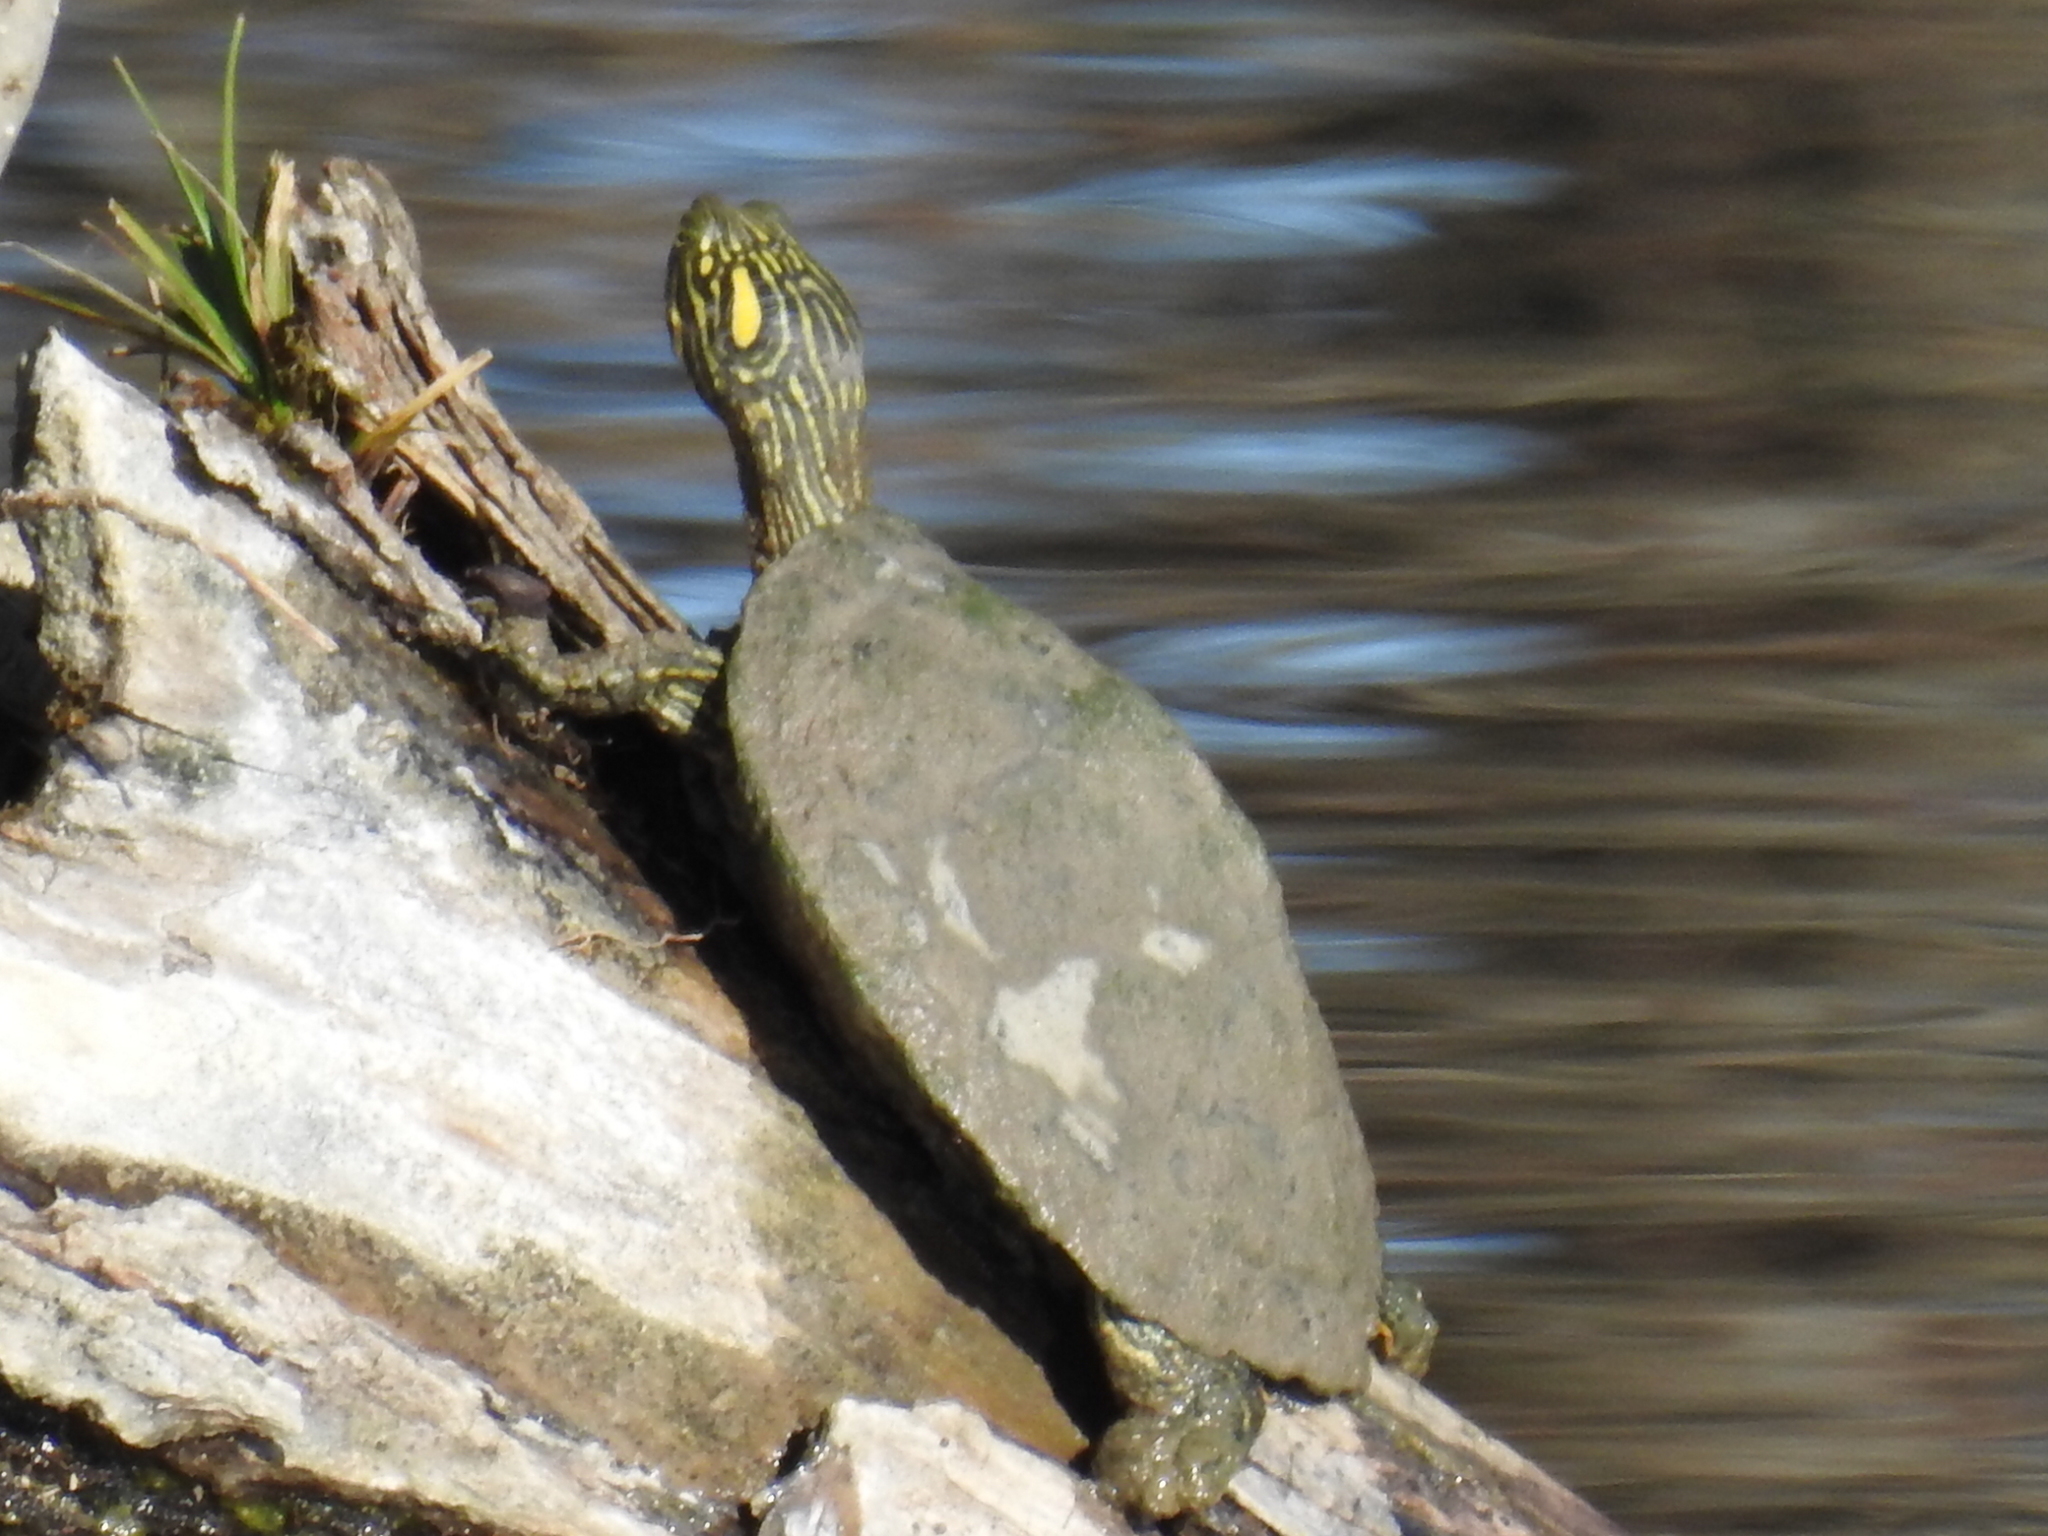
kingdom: Animalia
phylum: Chordata
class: Testudines
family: Emydidae
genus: Pseudemys
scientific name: Pseudemys texana
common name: Texas river cooter
